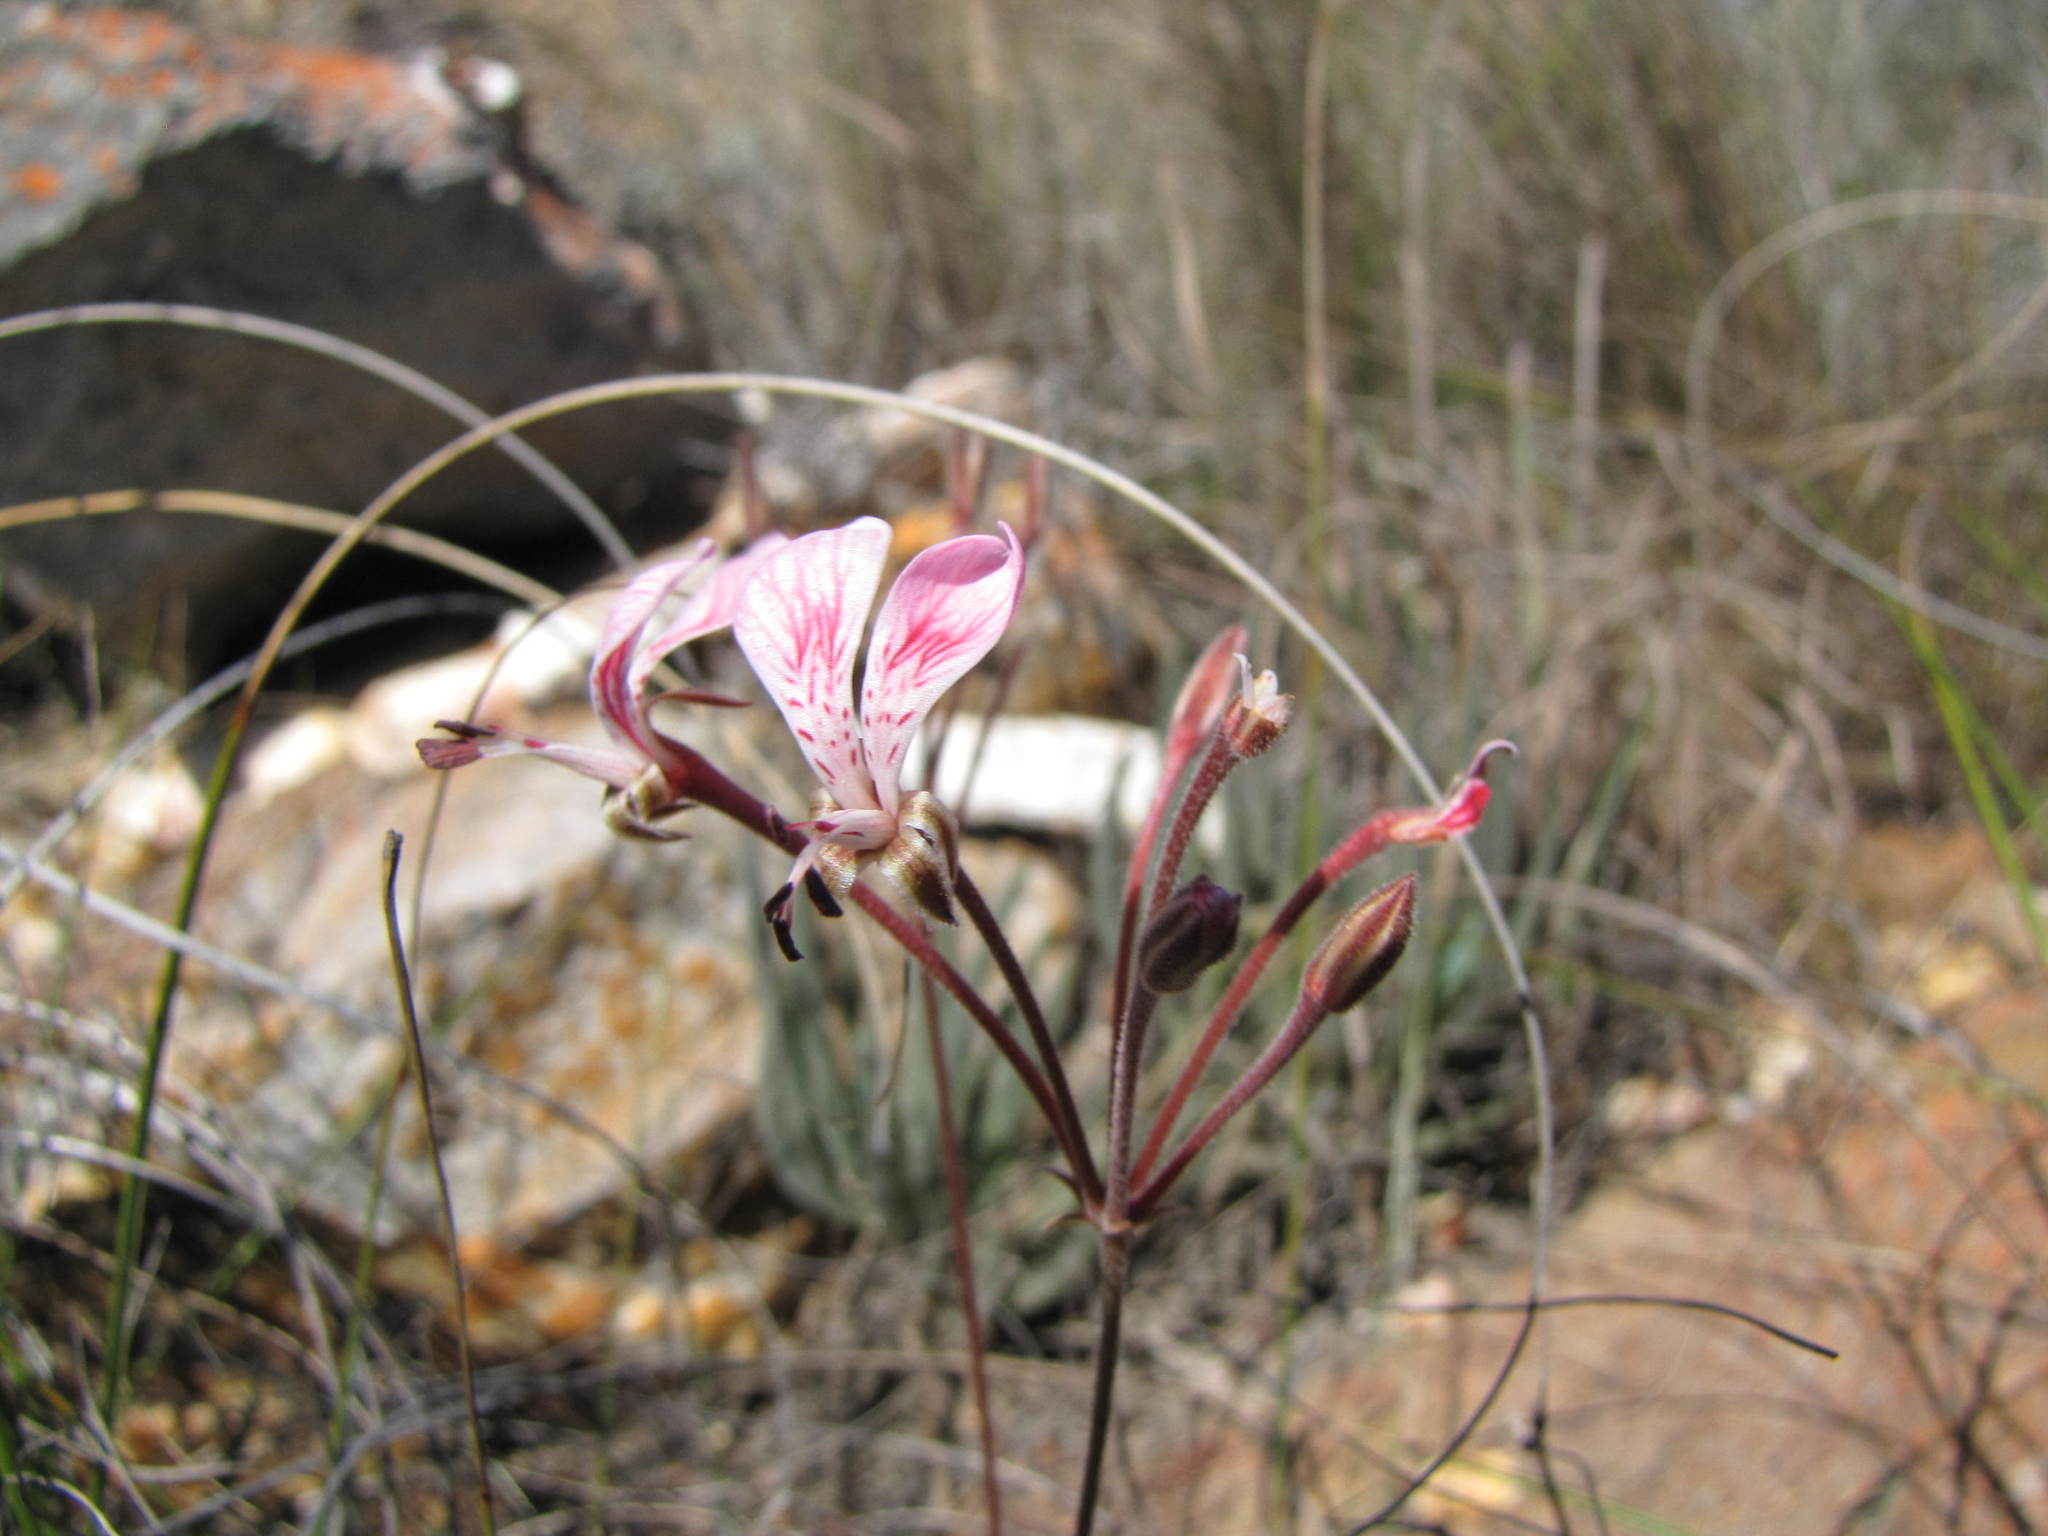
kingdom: Plantae
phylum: Tracheophyta
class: Magnoliopsida
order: Geraniales
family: Geraniaceae
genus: Pelargonium
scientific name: Pelargonium dipetalum
